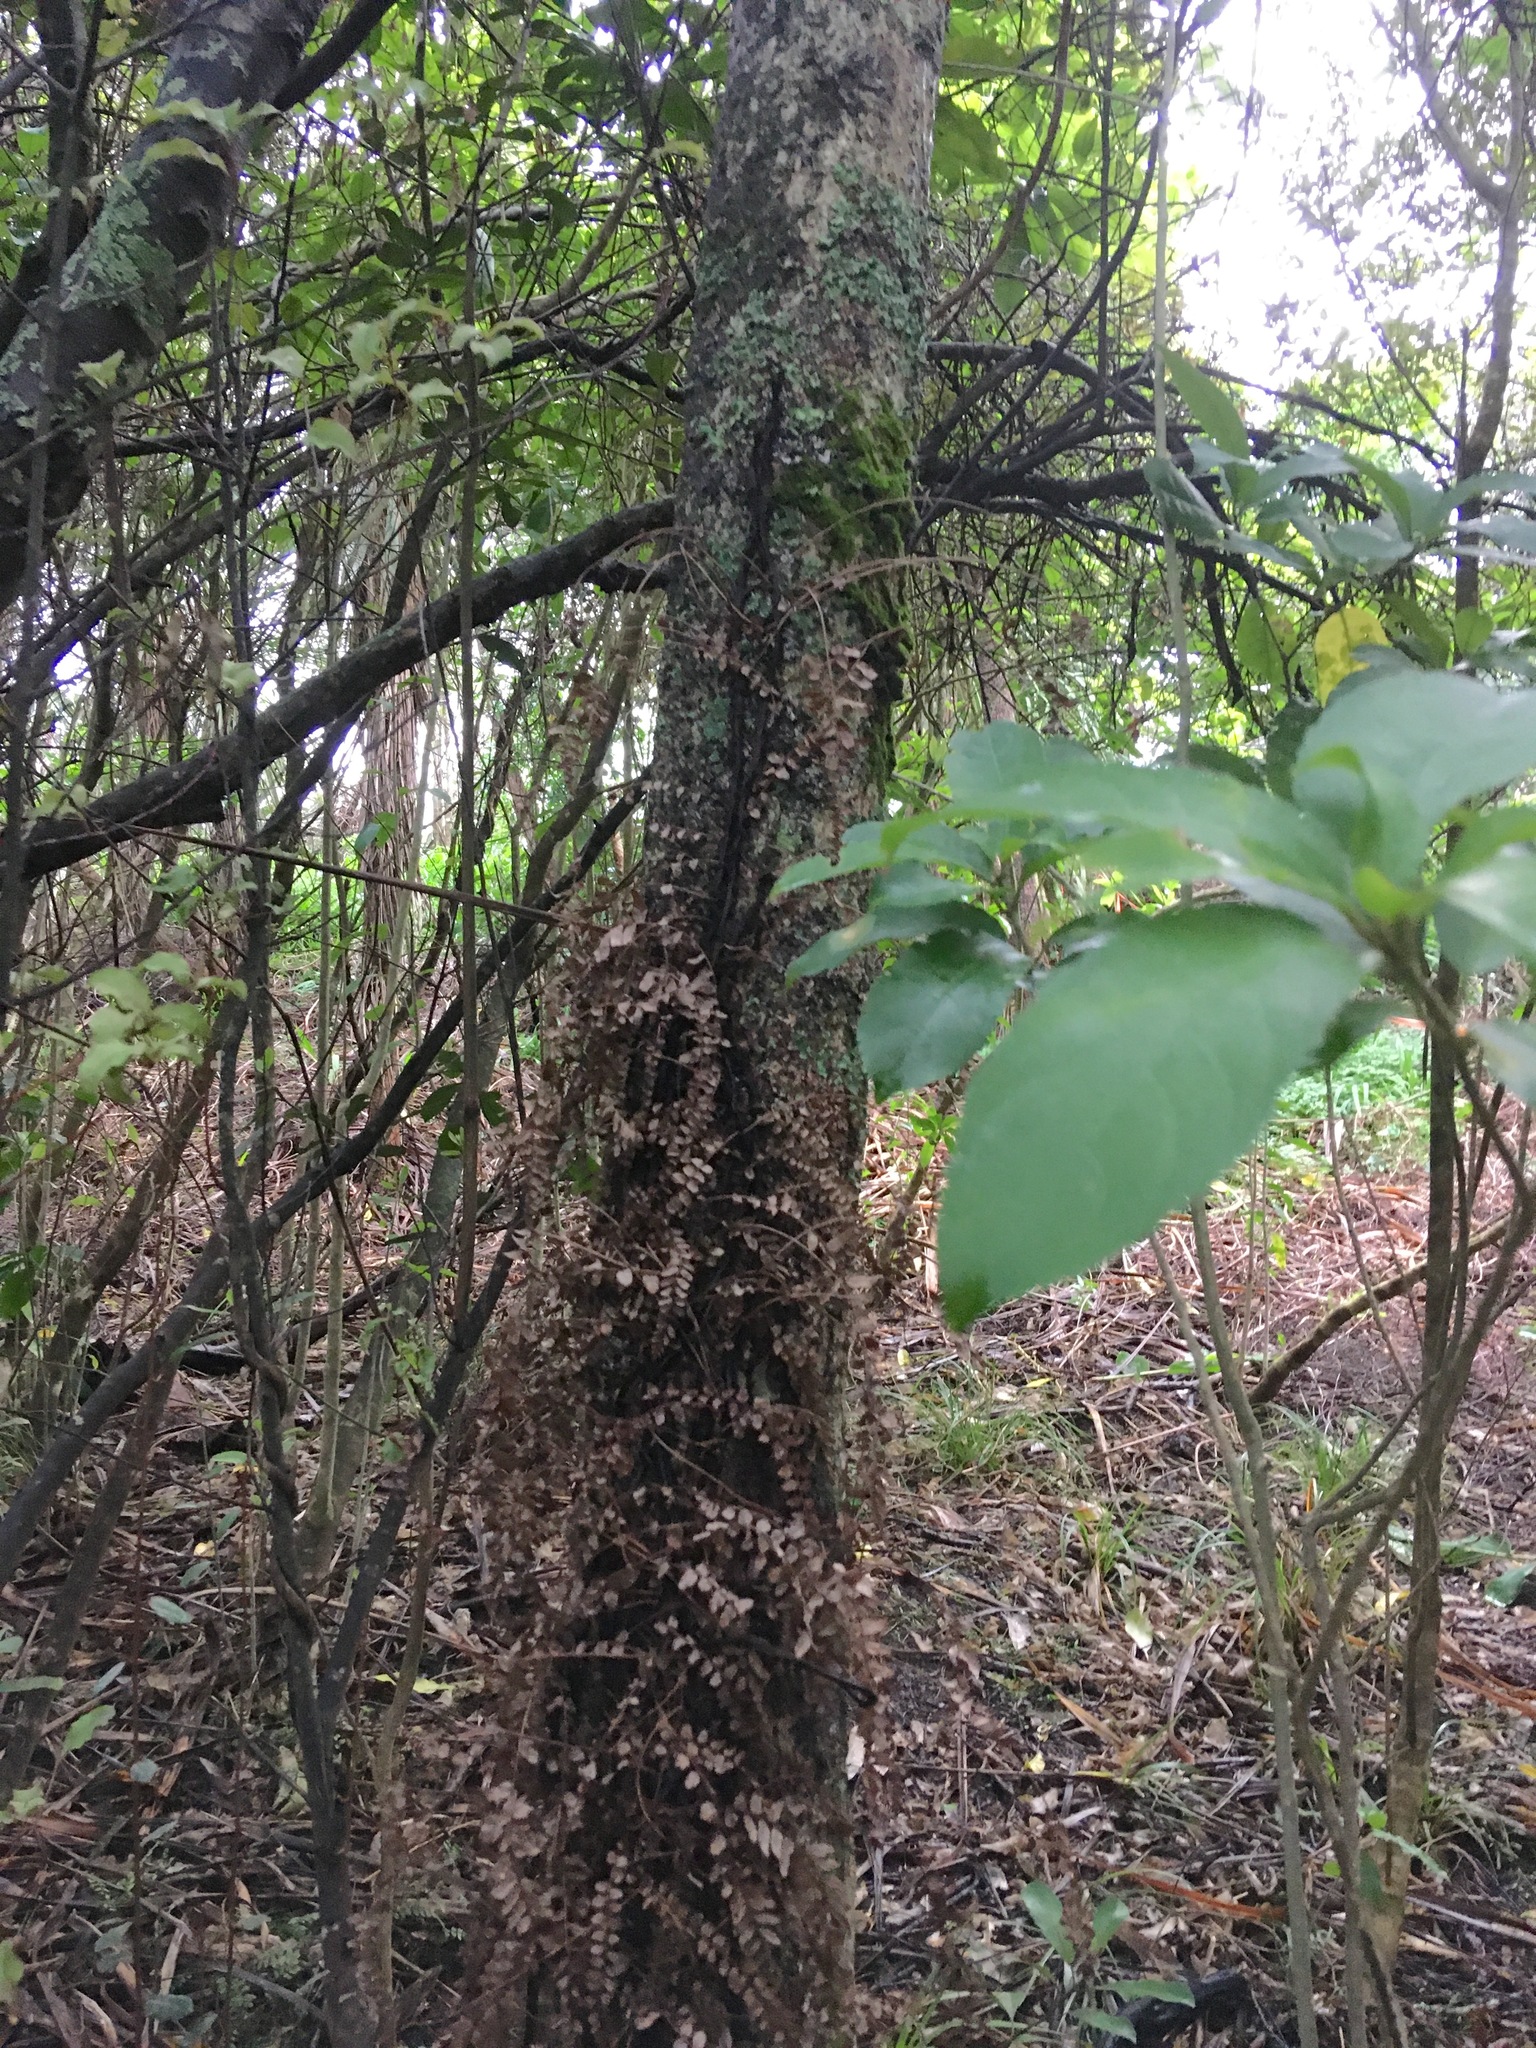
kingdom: Plantae
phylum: Tracheophyta
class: Polypodiopsida
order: Polypodiales
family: Blechnaceae
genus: Icarus
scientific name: Icarus filiformis
